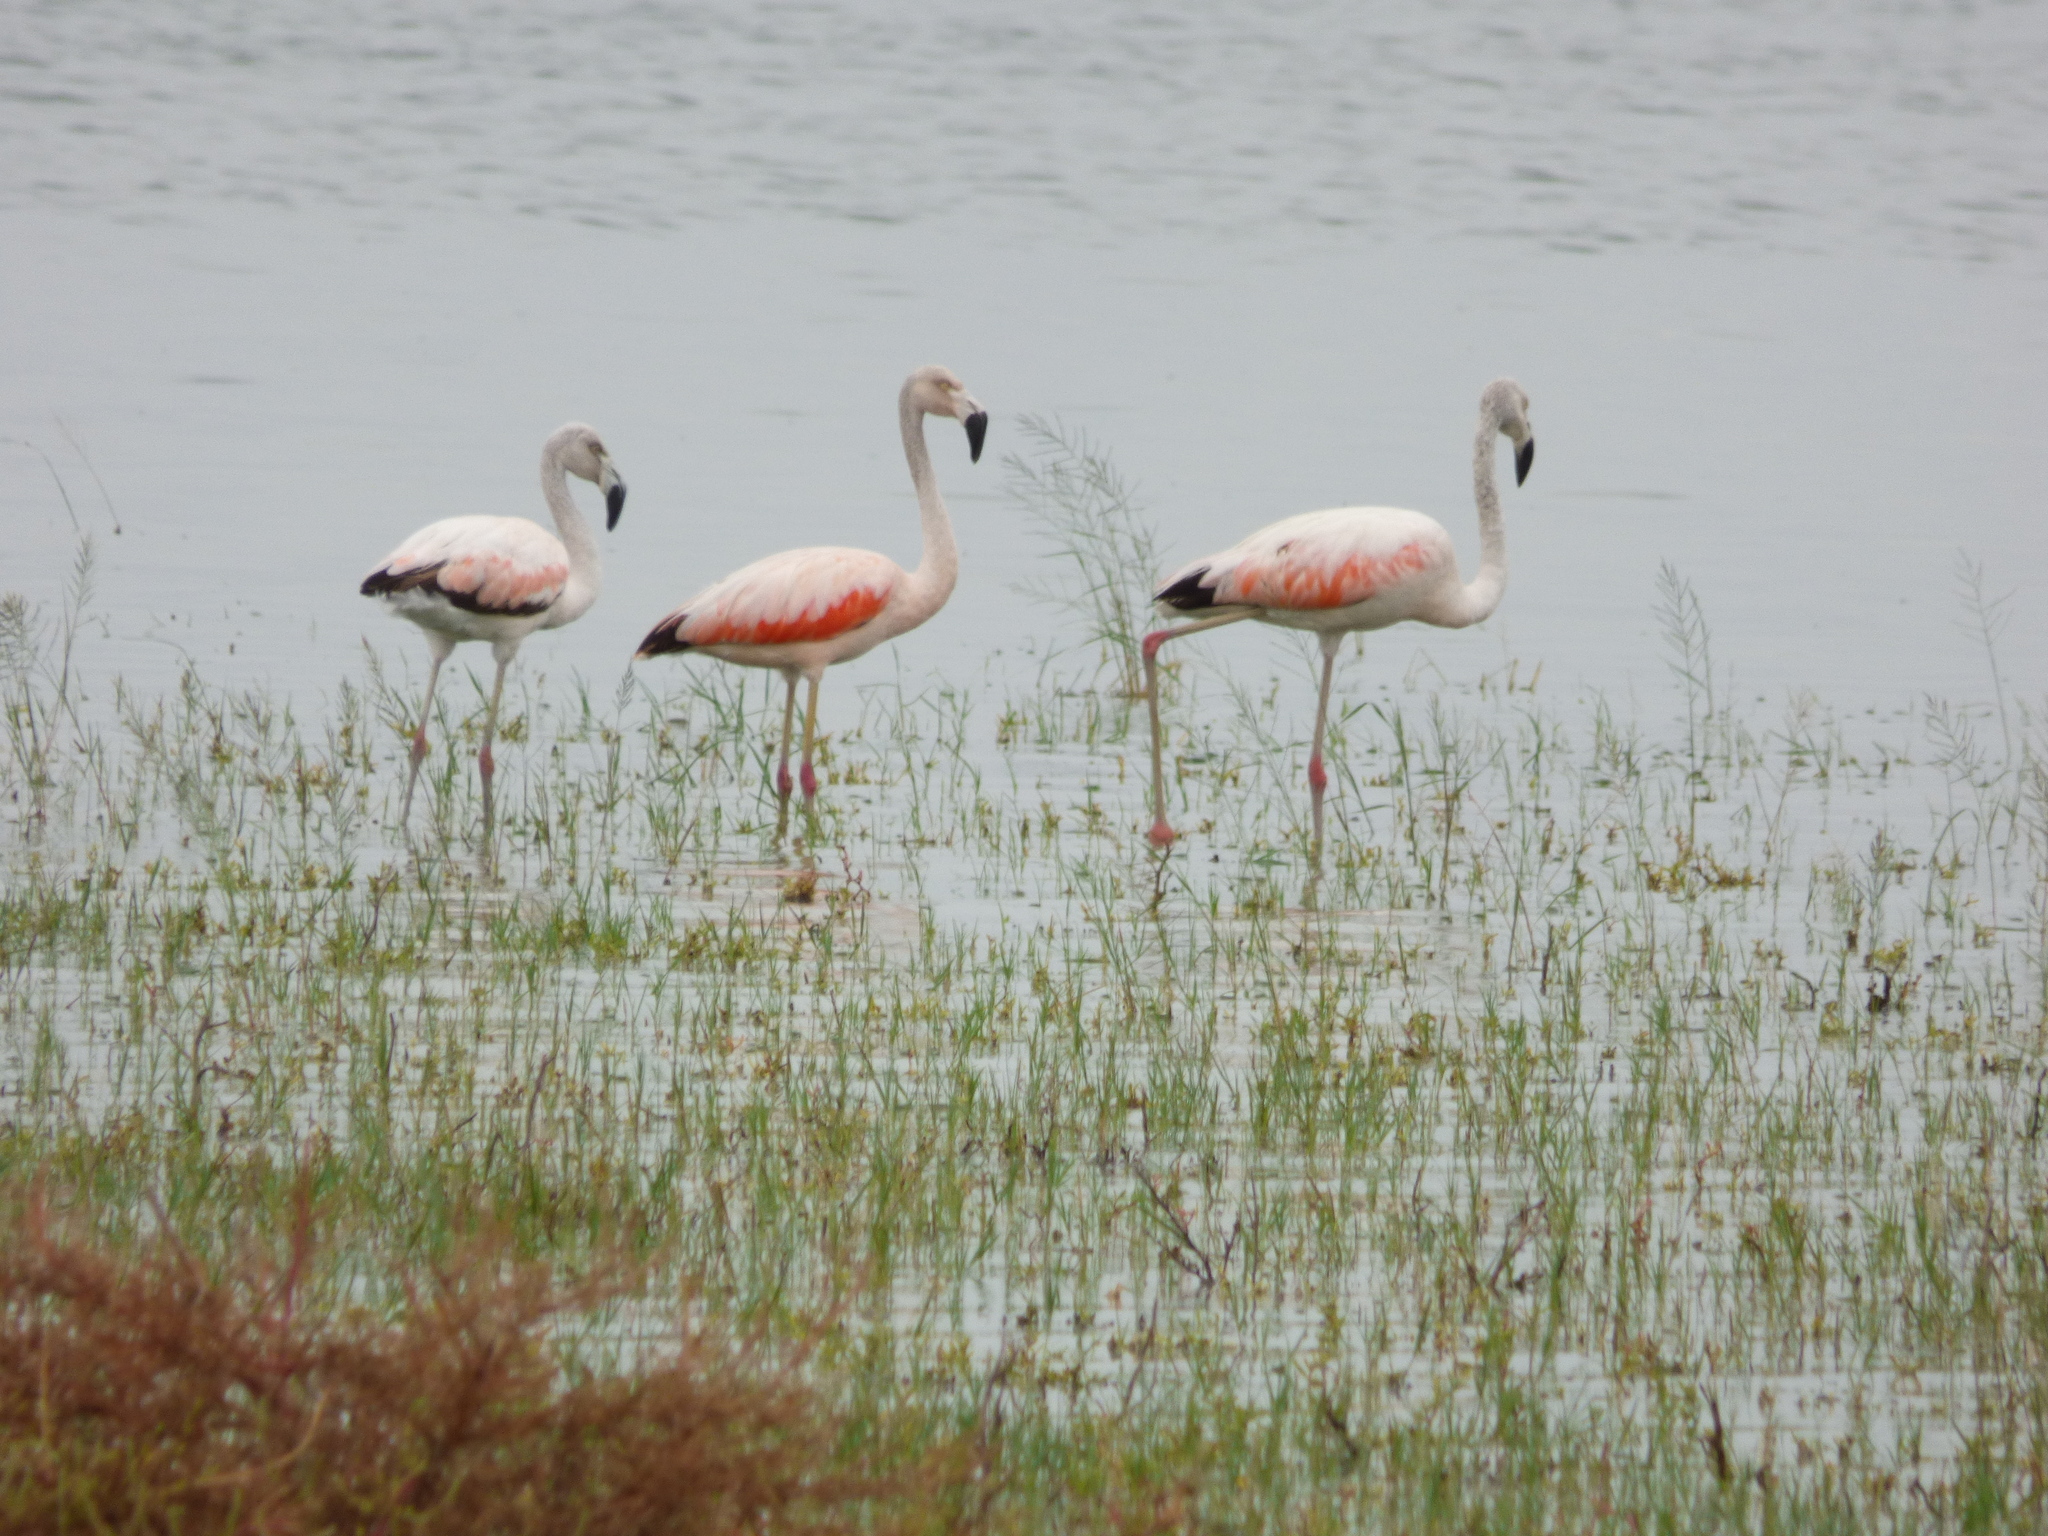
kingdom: Animalia
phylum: Chordata
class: Aves
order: Phoenicopteriformes
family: Phoenicopteridae
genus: Phoenicopterus
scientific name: Phoenicopterus chilensis
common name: Chilean flamingo
